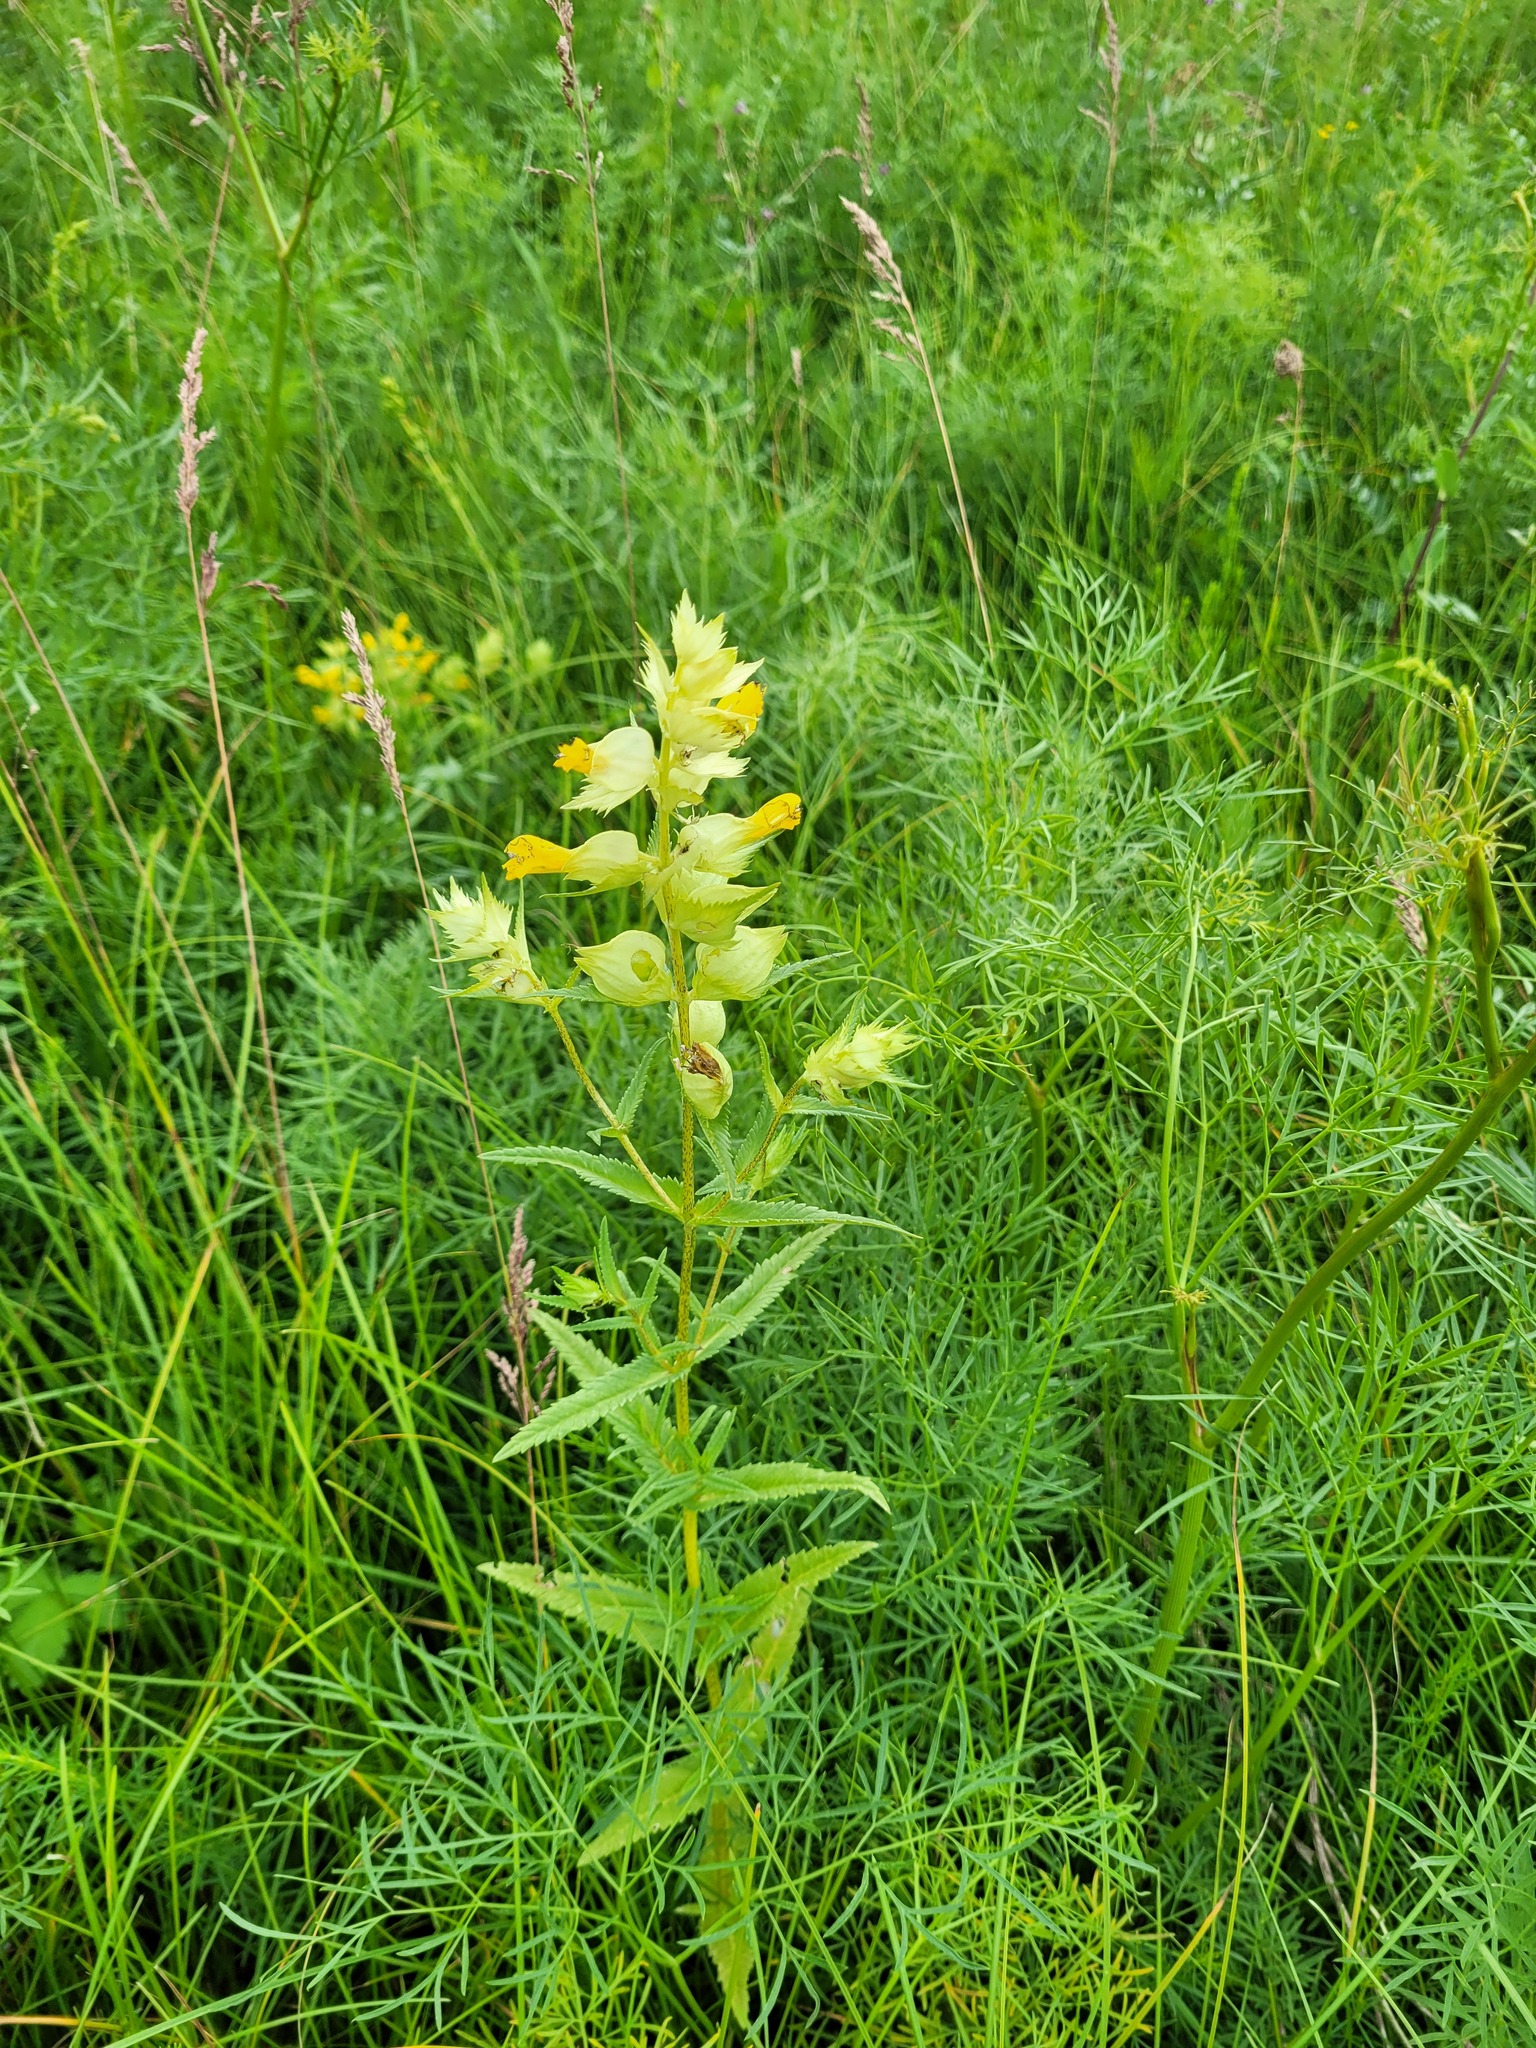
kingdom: Plantae
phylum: Tracheophyta
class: Magnoliopsida
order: Lamiales
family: Orobanchaceae
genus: Rhinanthus
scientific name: Rhinanthus serotinus
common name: Late-flowering yellow rattle
